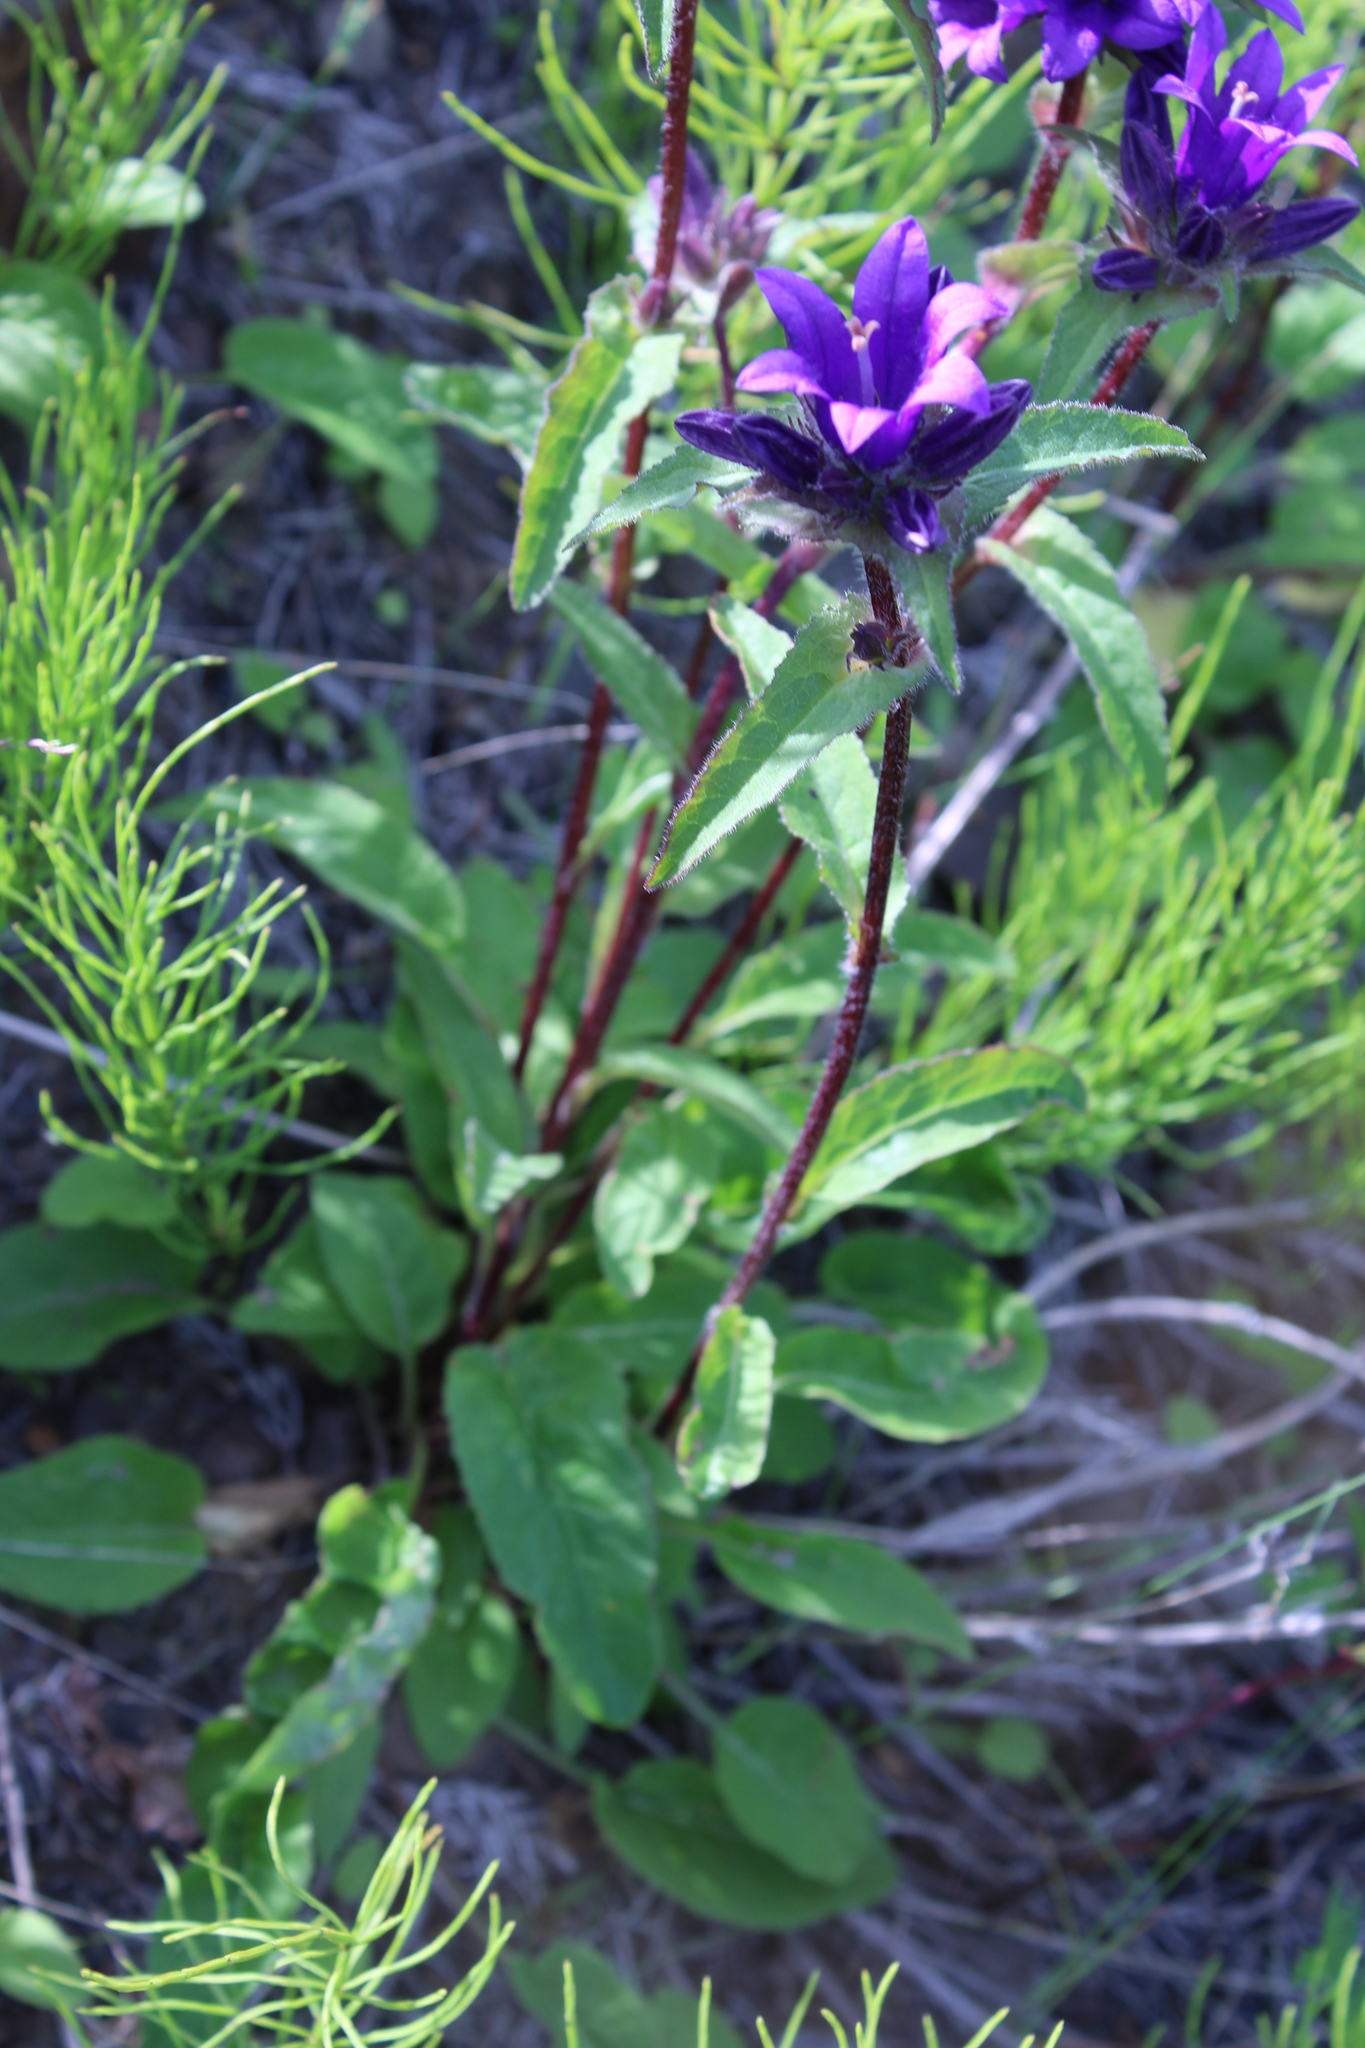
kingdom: Plantae
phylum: Tracheophyta
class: Magnoliopsida
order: Asterales
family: Campanulaceae
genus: Campanula
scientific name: Campanula glomerata
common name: Clustered bellflower
